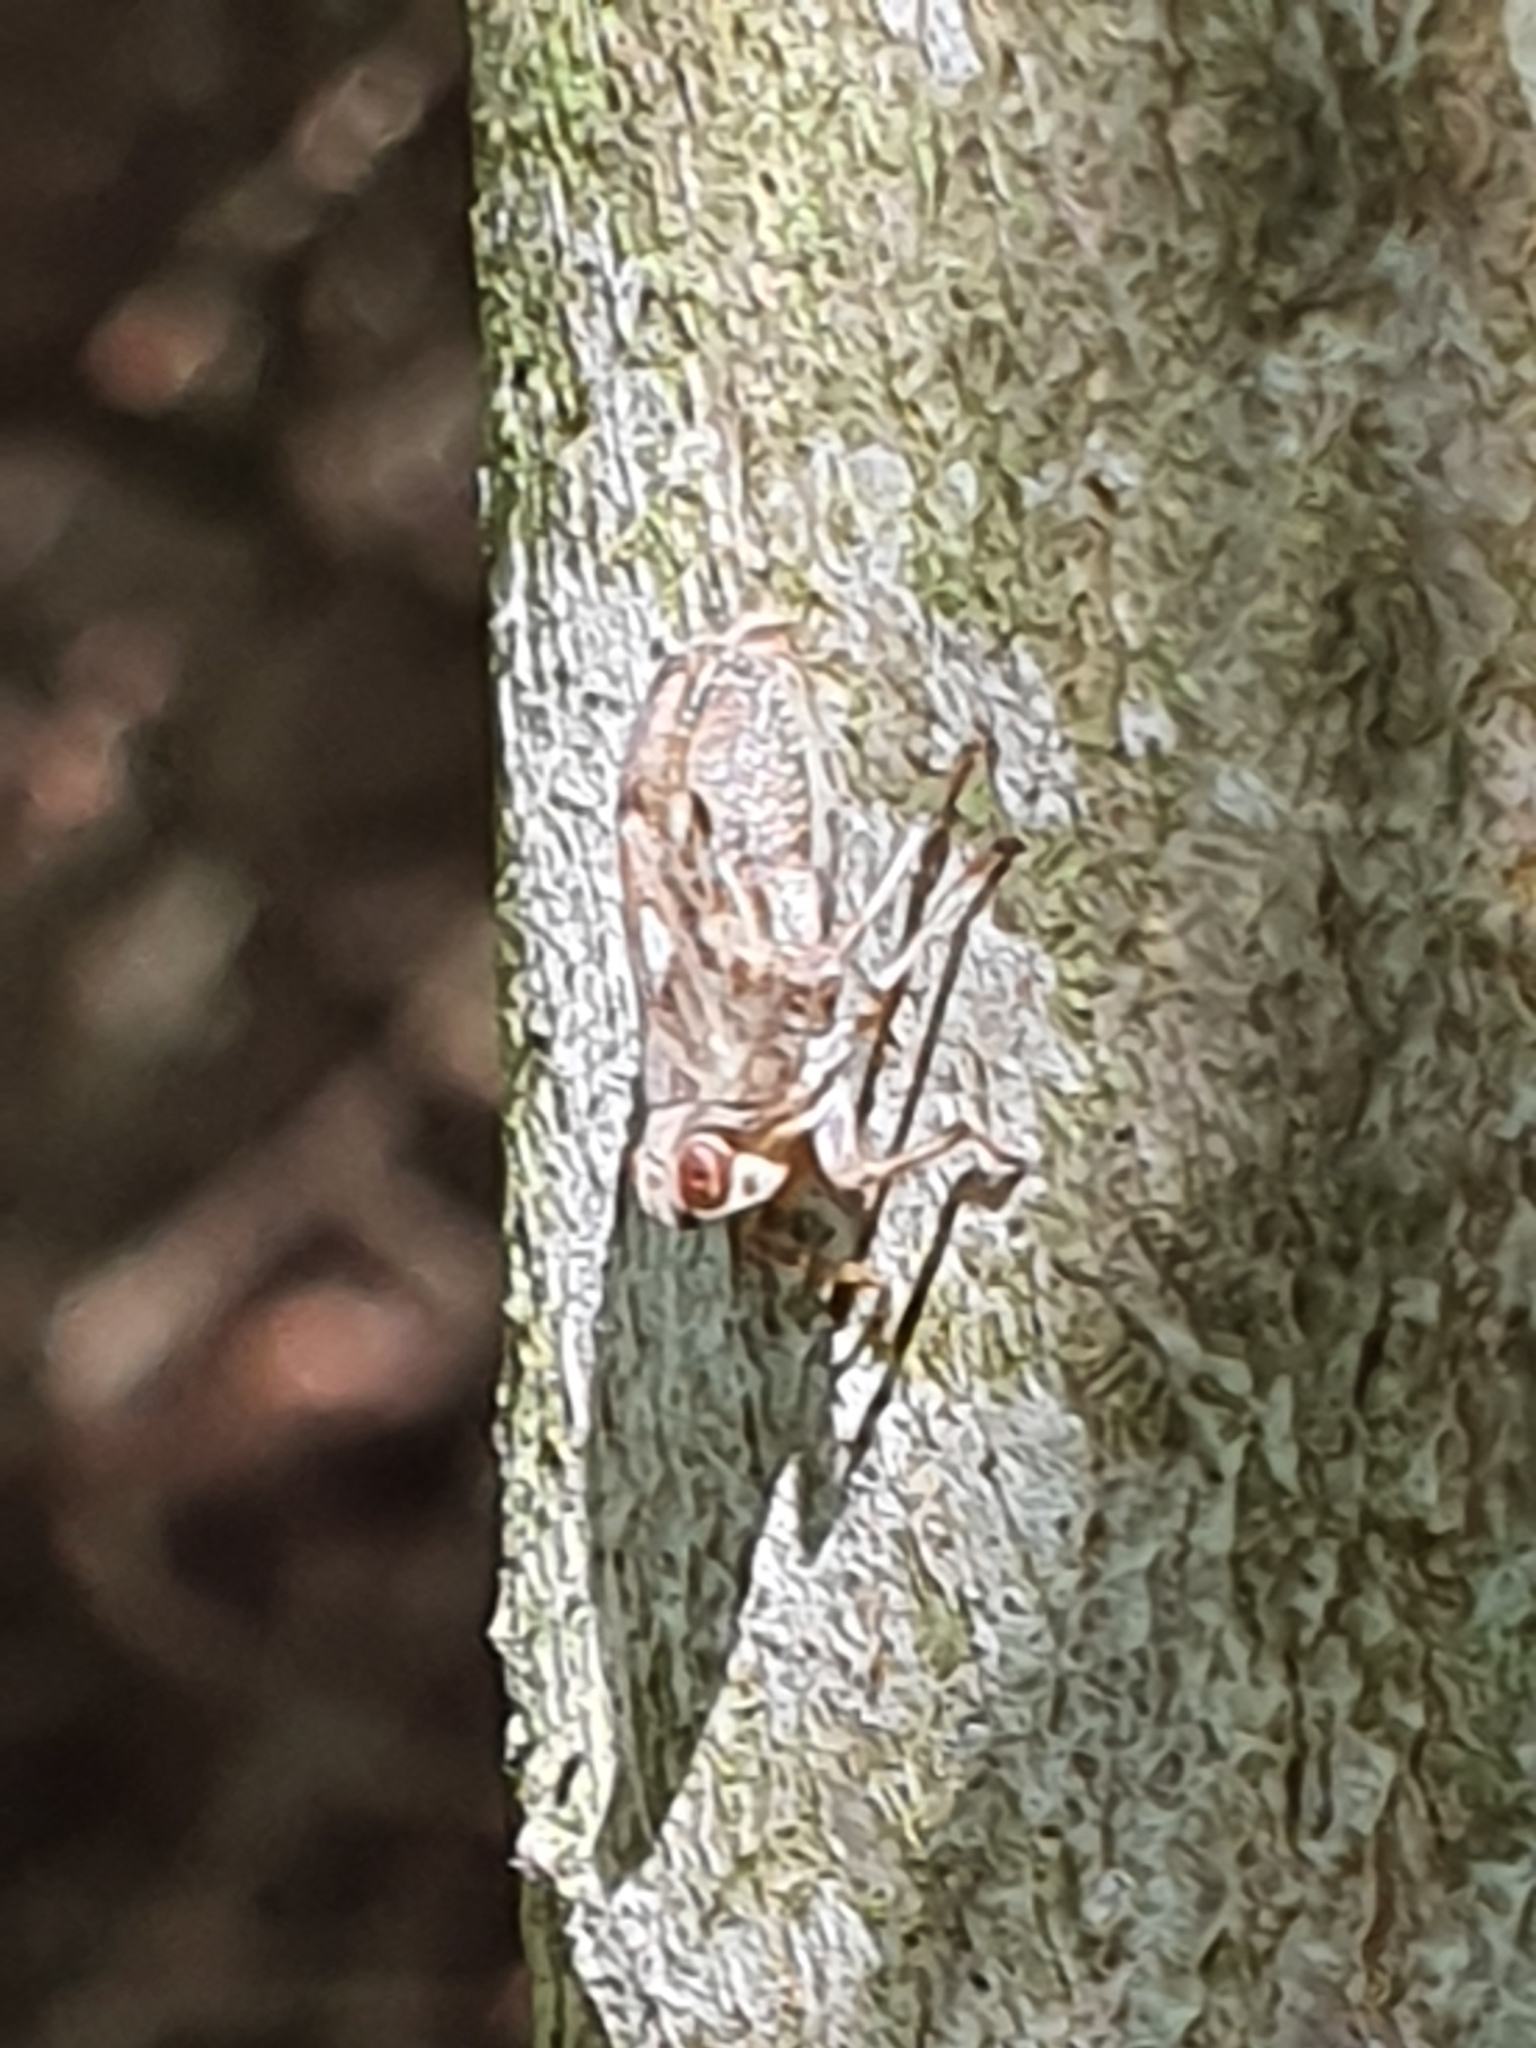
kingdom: Animalia
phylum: Arthropoda
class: Insecta
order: Hemiptera
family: Issidae
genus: Issus
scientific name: Issus coleoptratus
